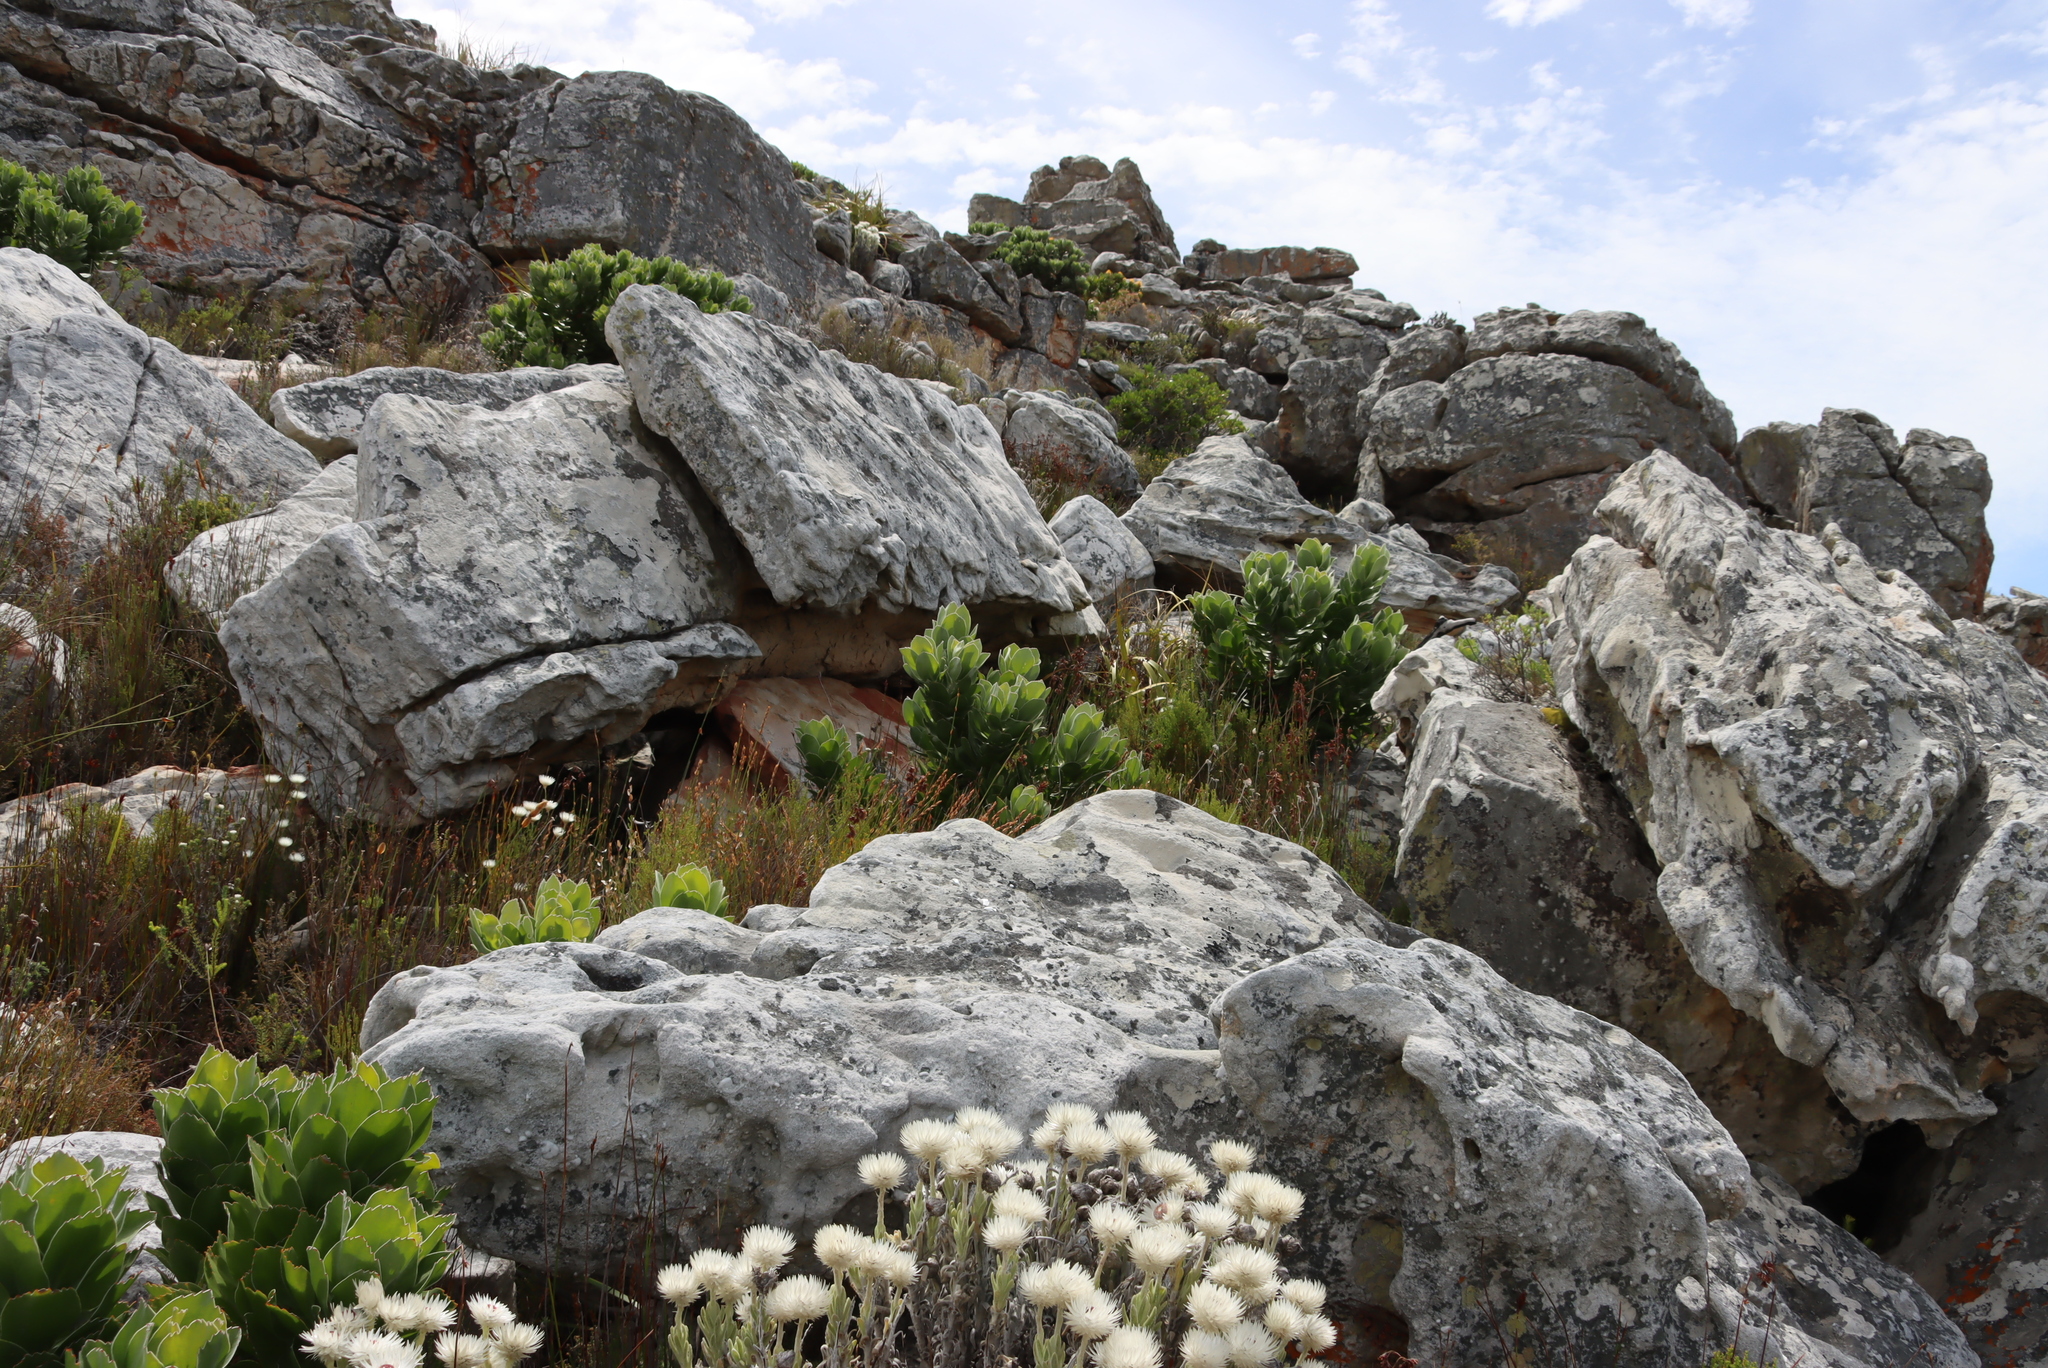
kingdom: Plantae
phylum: Tracheophyta
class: Magnoliopsida
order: Proteales
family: Proteaceae
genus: Leucospermum
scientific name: Leucospermum conocarpodendron
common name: Tree pincushion
